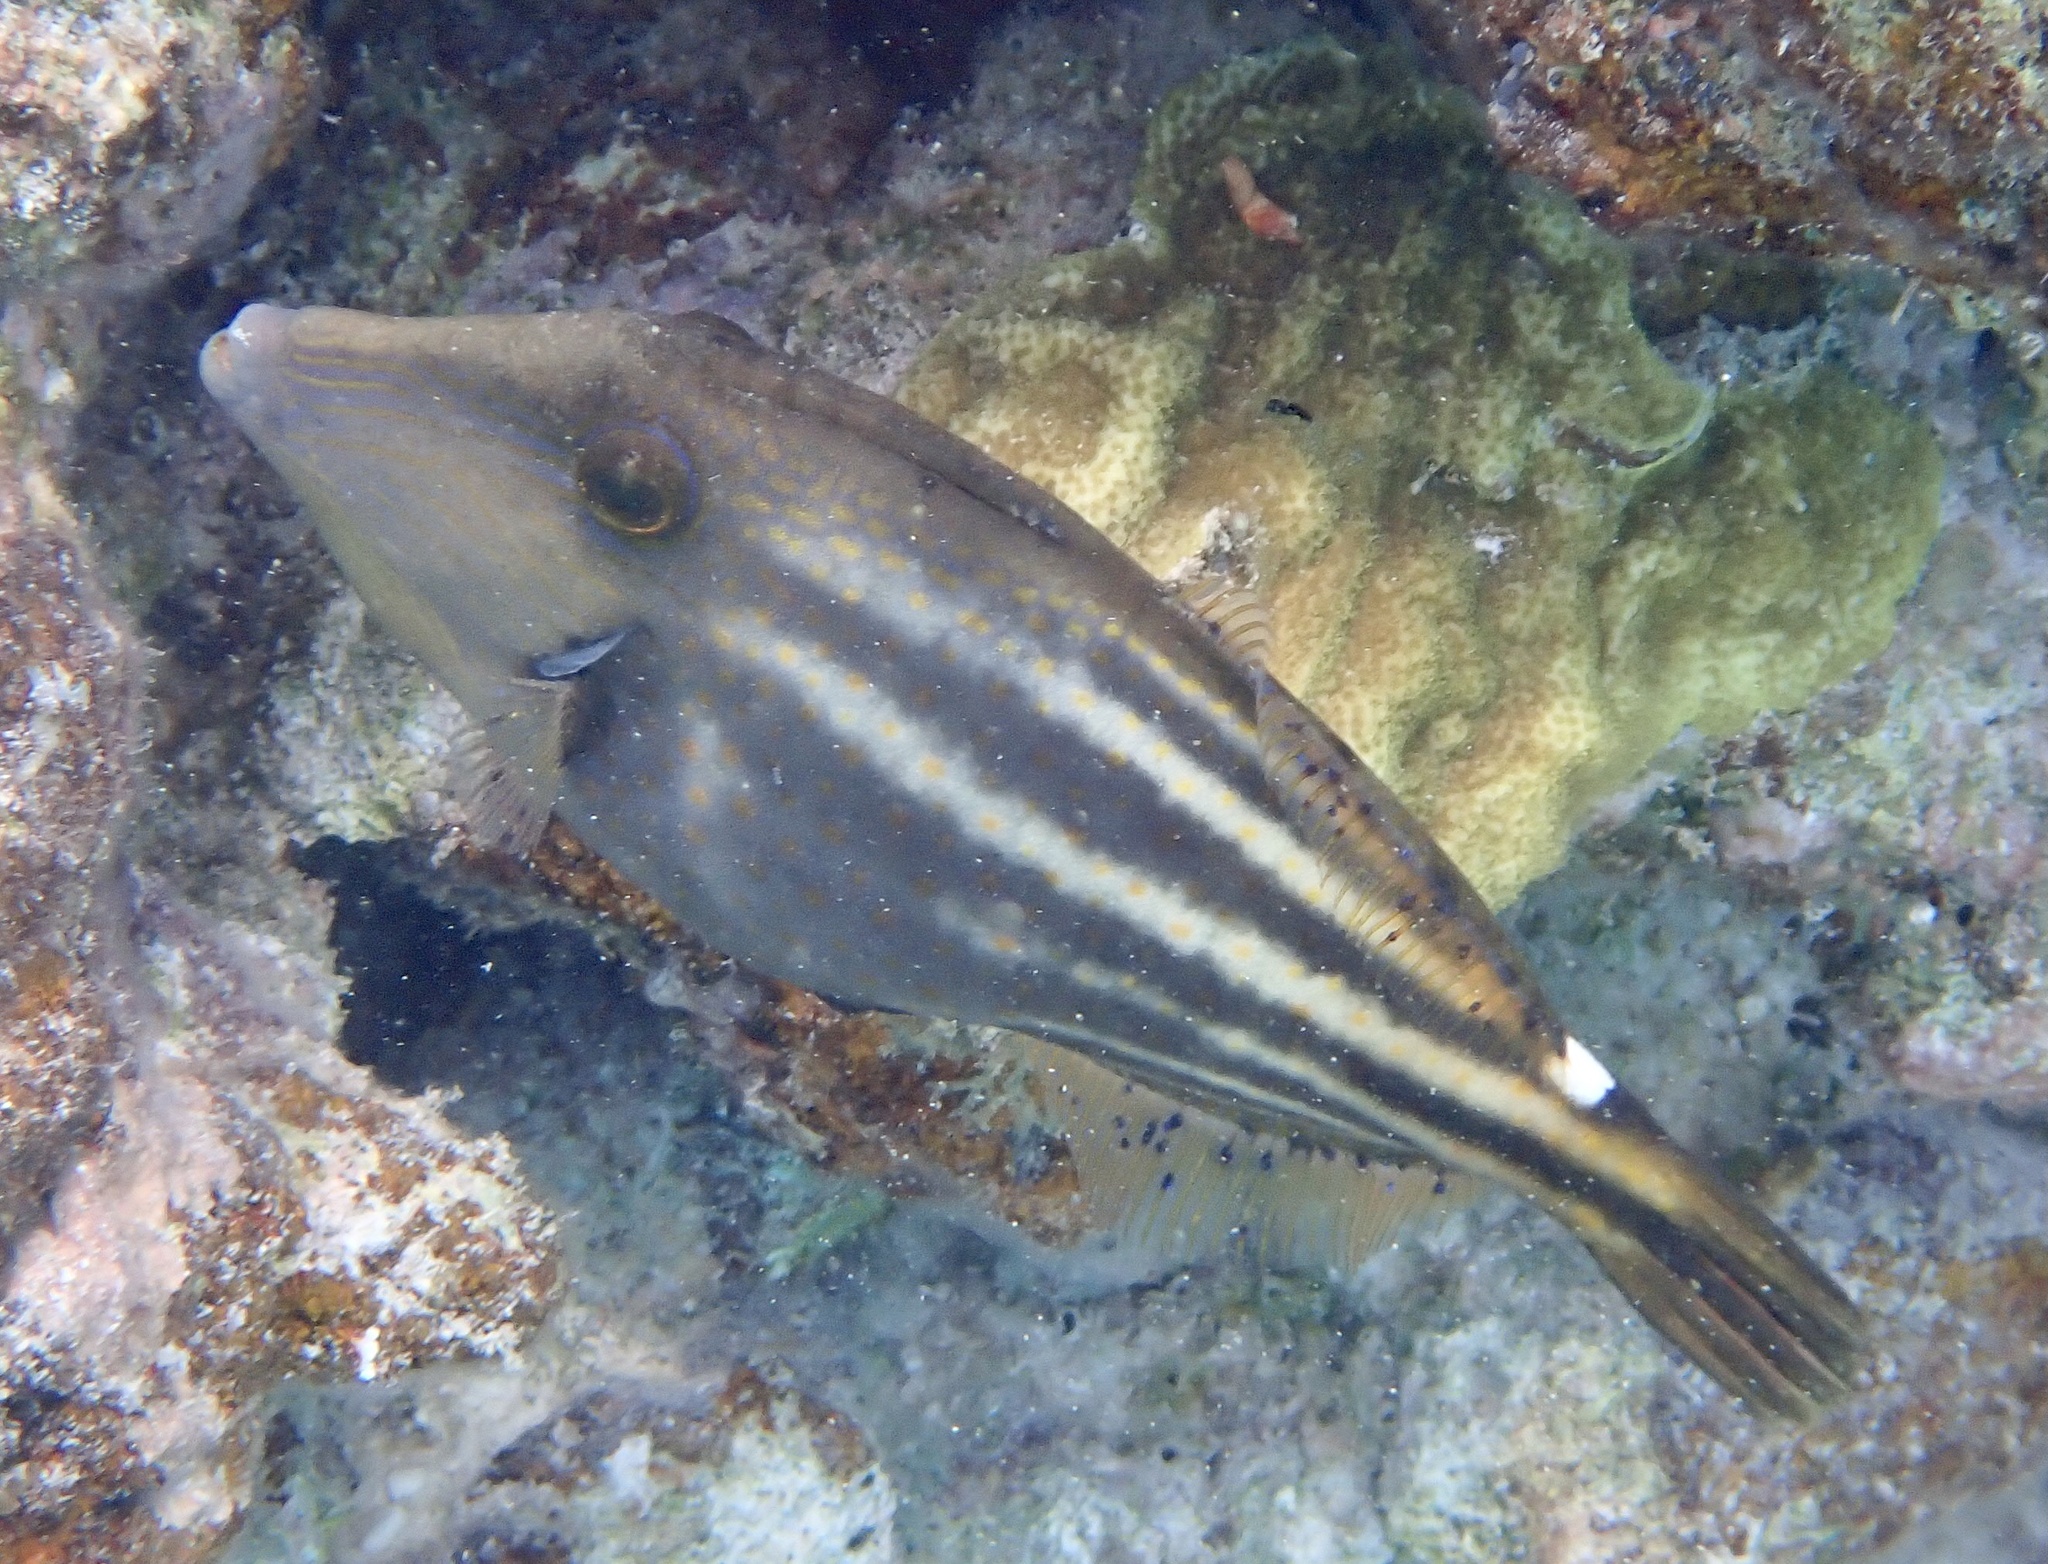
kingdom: Animalia
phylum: Chordata
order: Tetraodontiformes
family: Monacanthidae
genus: Cantherhines
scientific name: Cantherhines pullus
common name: Orangespotted filefish
